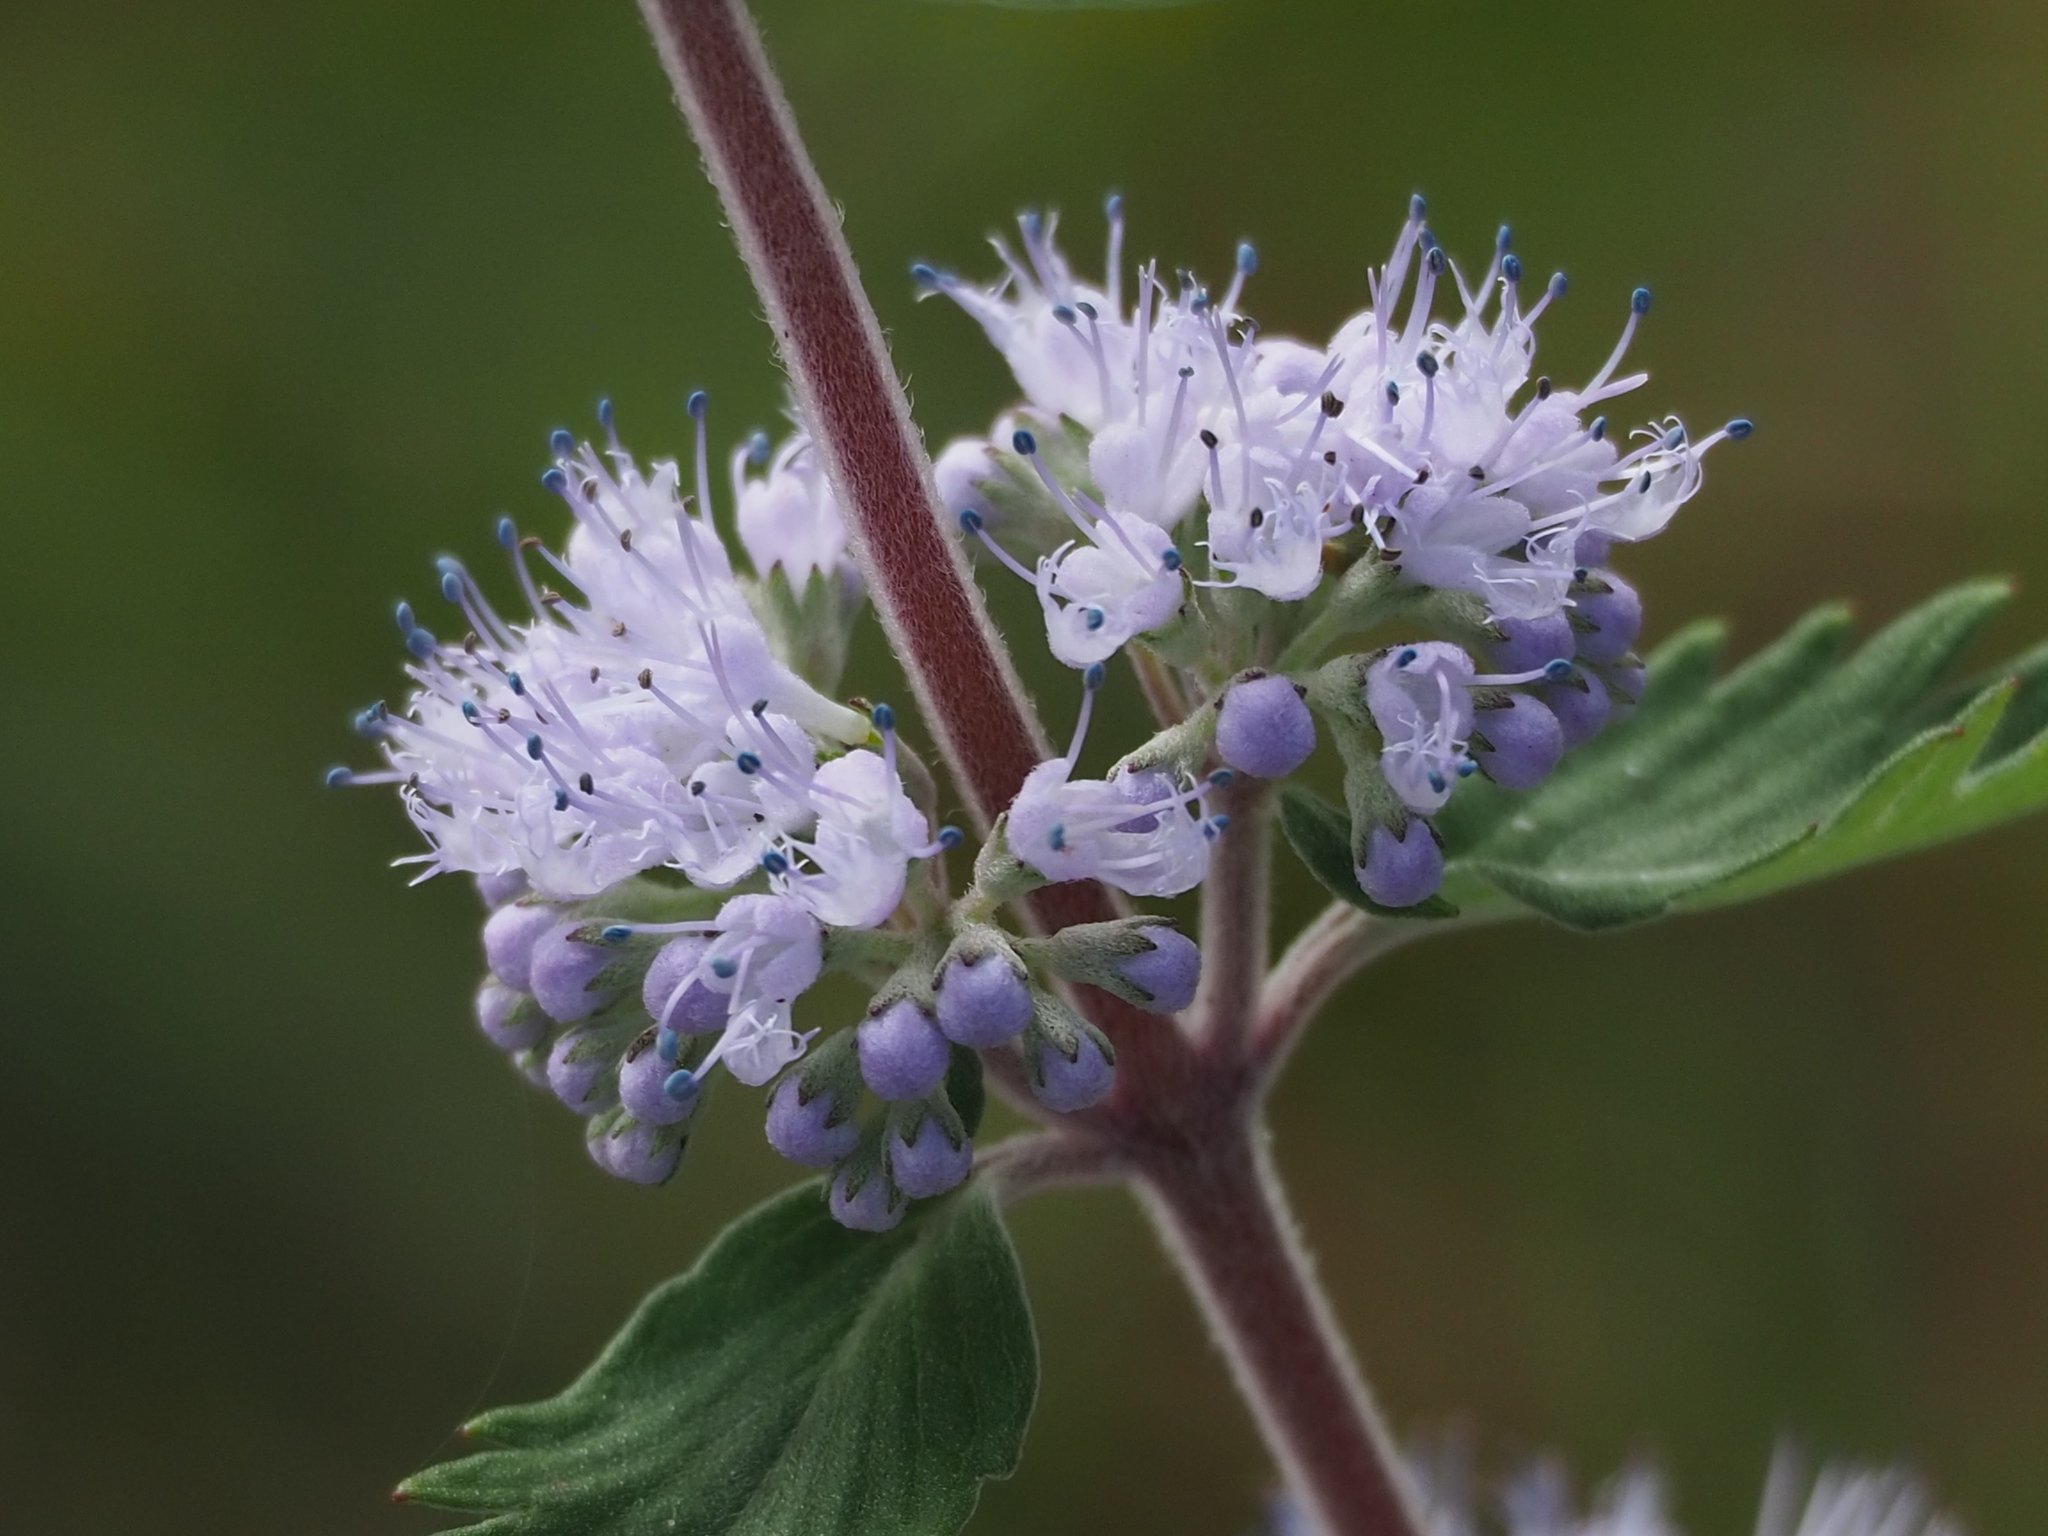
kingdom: Plantae
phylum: Tracheophyta
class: Magnoliopsida
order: Lamiales
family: Lamiaceae
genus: Caryopteris
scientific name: Caryopteris incana
